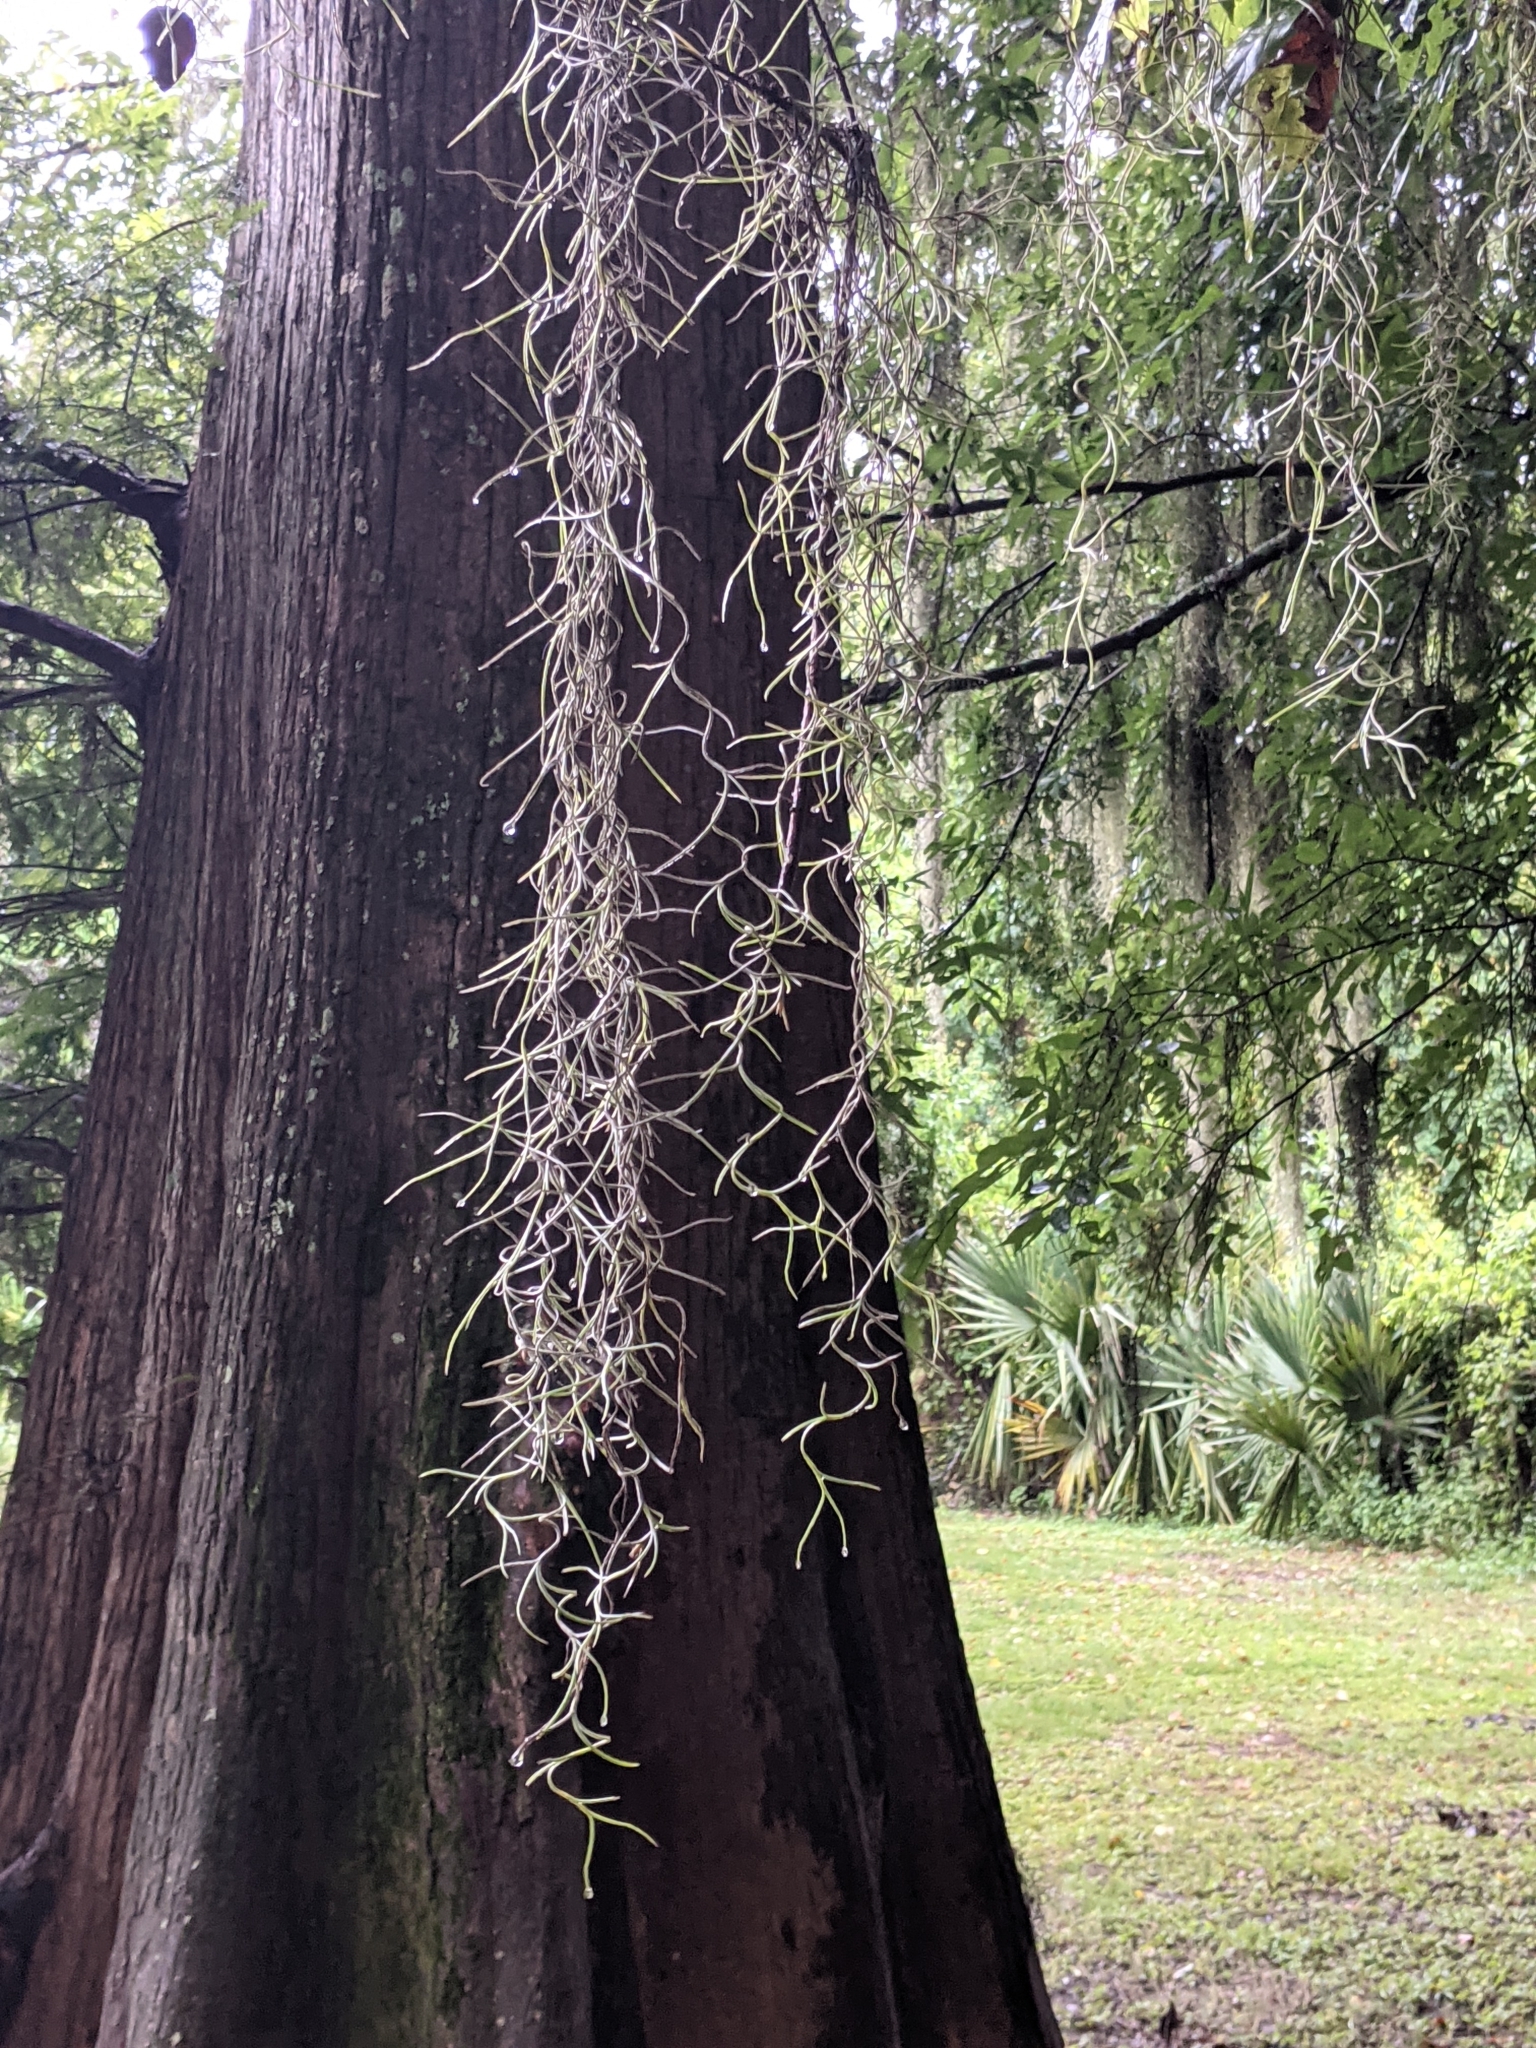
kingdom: Plantae
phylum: Tracheophyta
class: Liliopsida
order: Poales
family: Bromeliaceae
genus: Tillandsia
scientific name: Tillandsia usneoides
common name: Spanish moss
